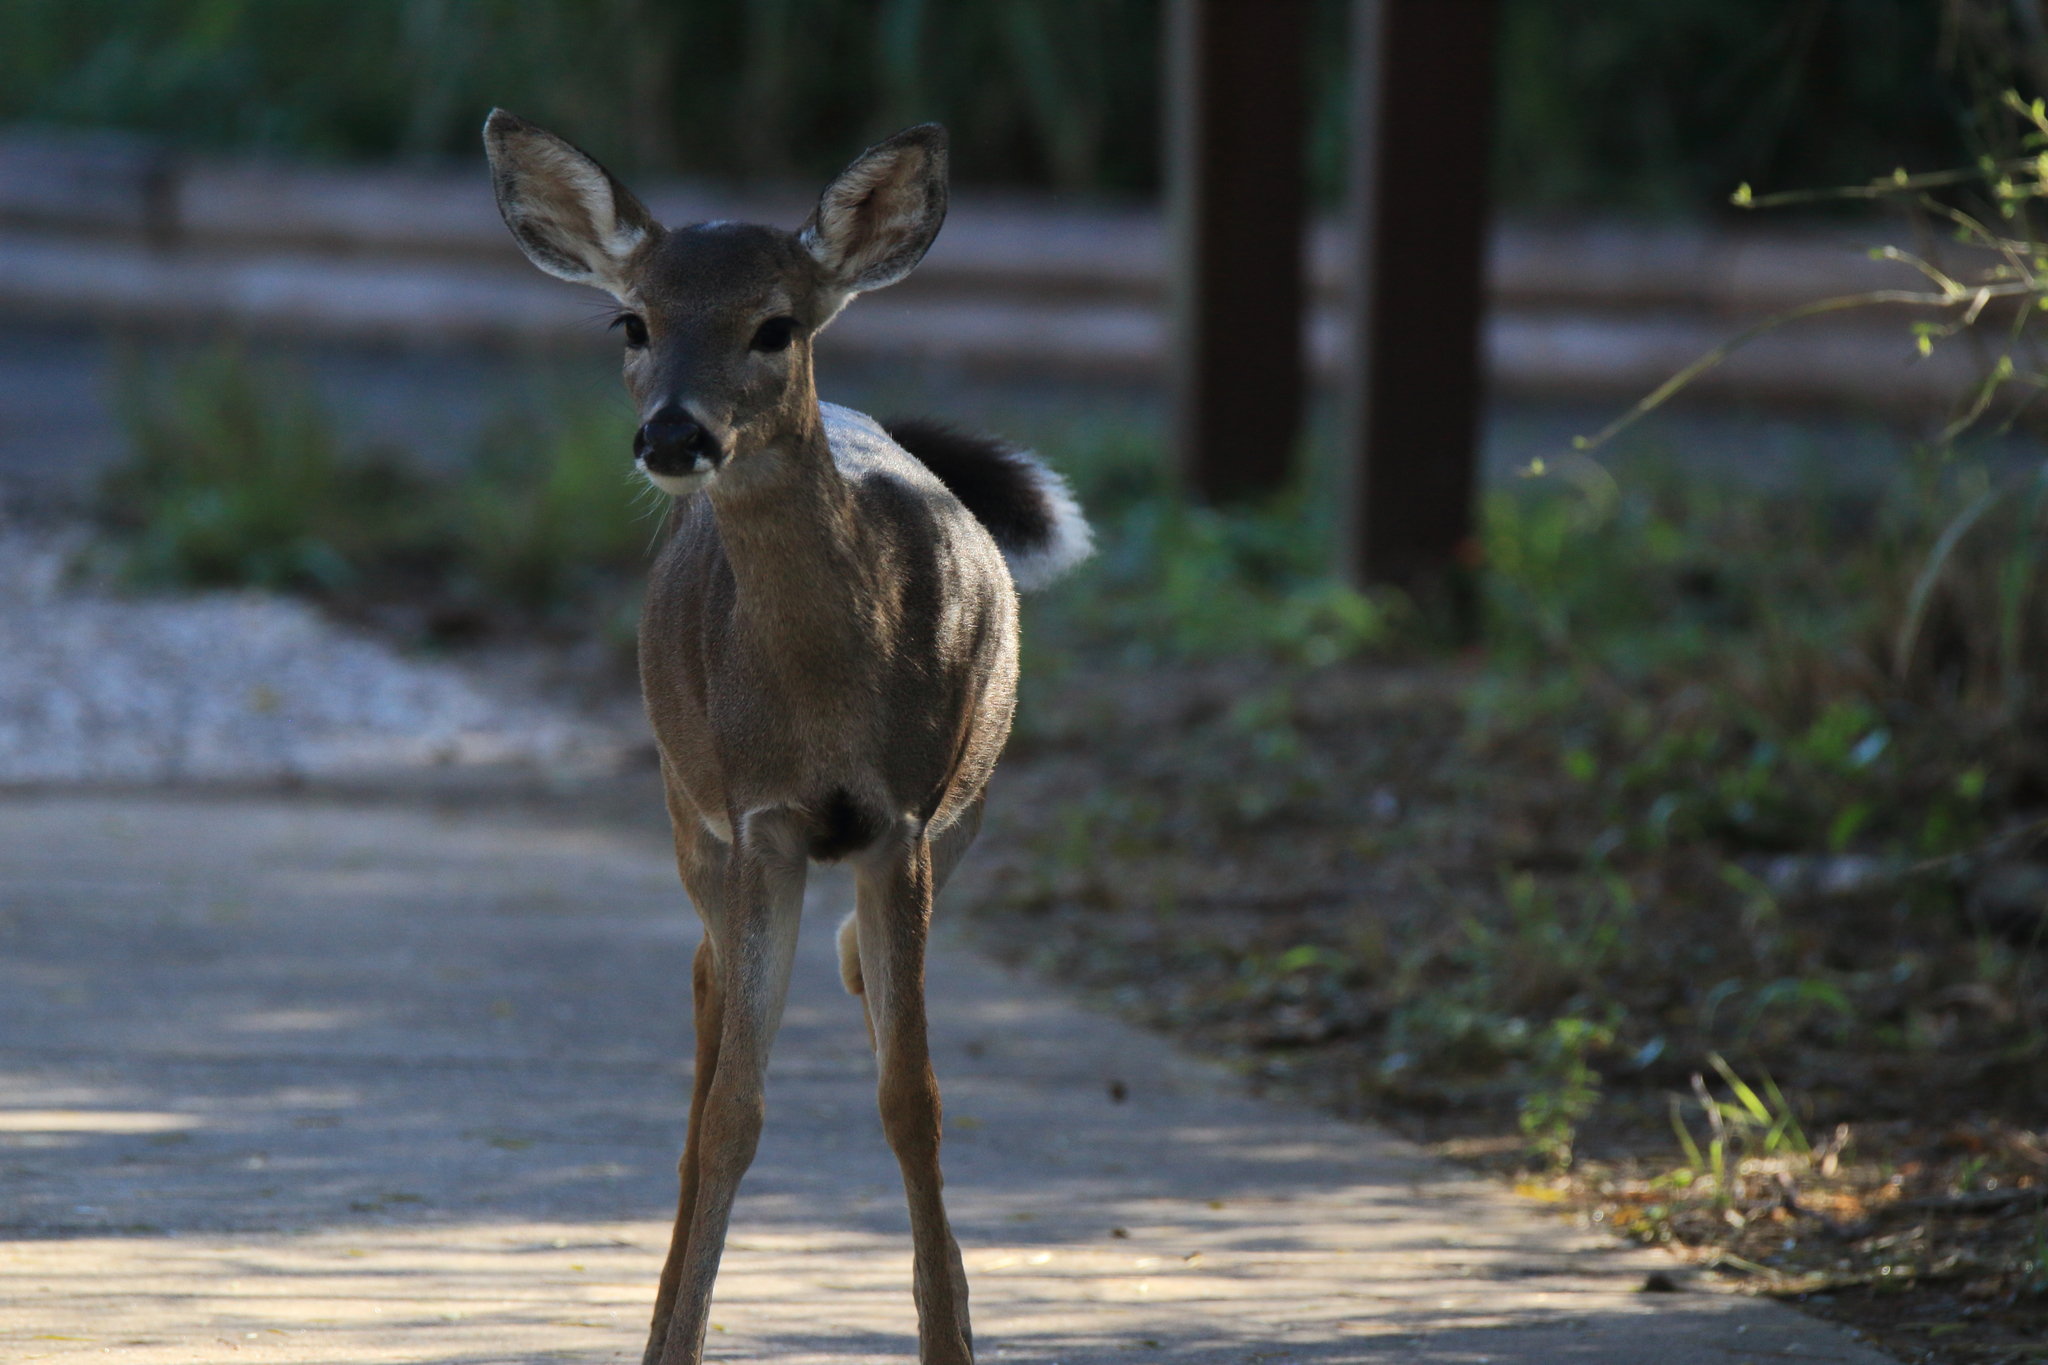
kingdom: Animalia
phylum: Chordata
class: Mammalia
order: Artiodactyla
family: Cervidae
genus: Odocoileus
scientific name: Odocoileus virginianus
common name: White-tailed deer
